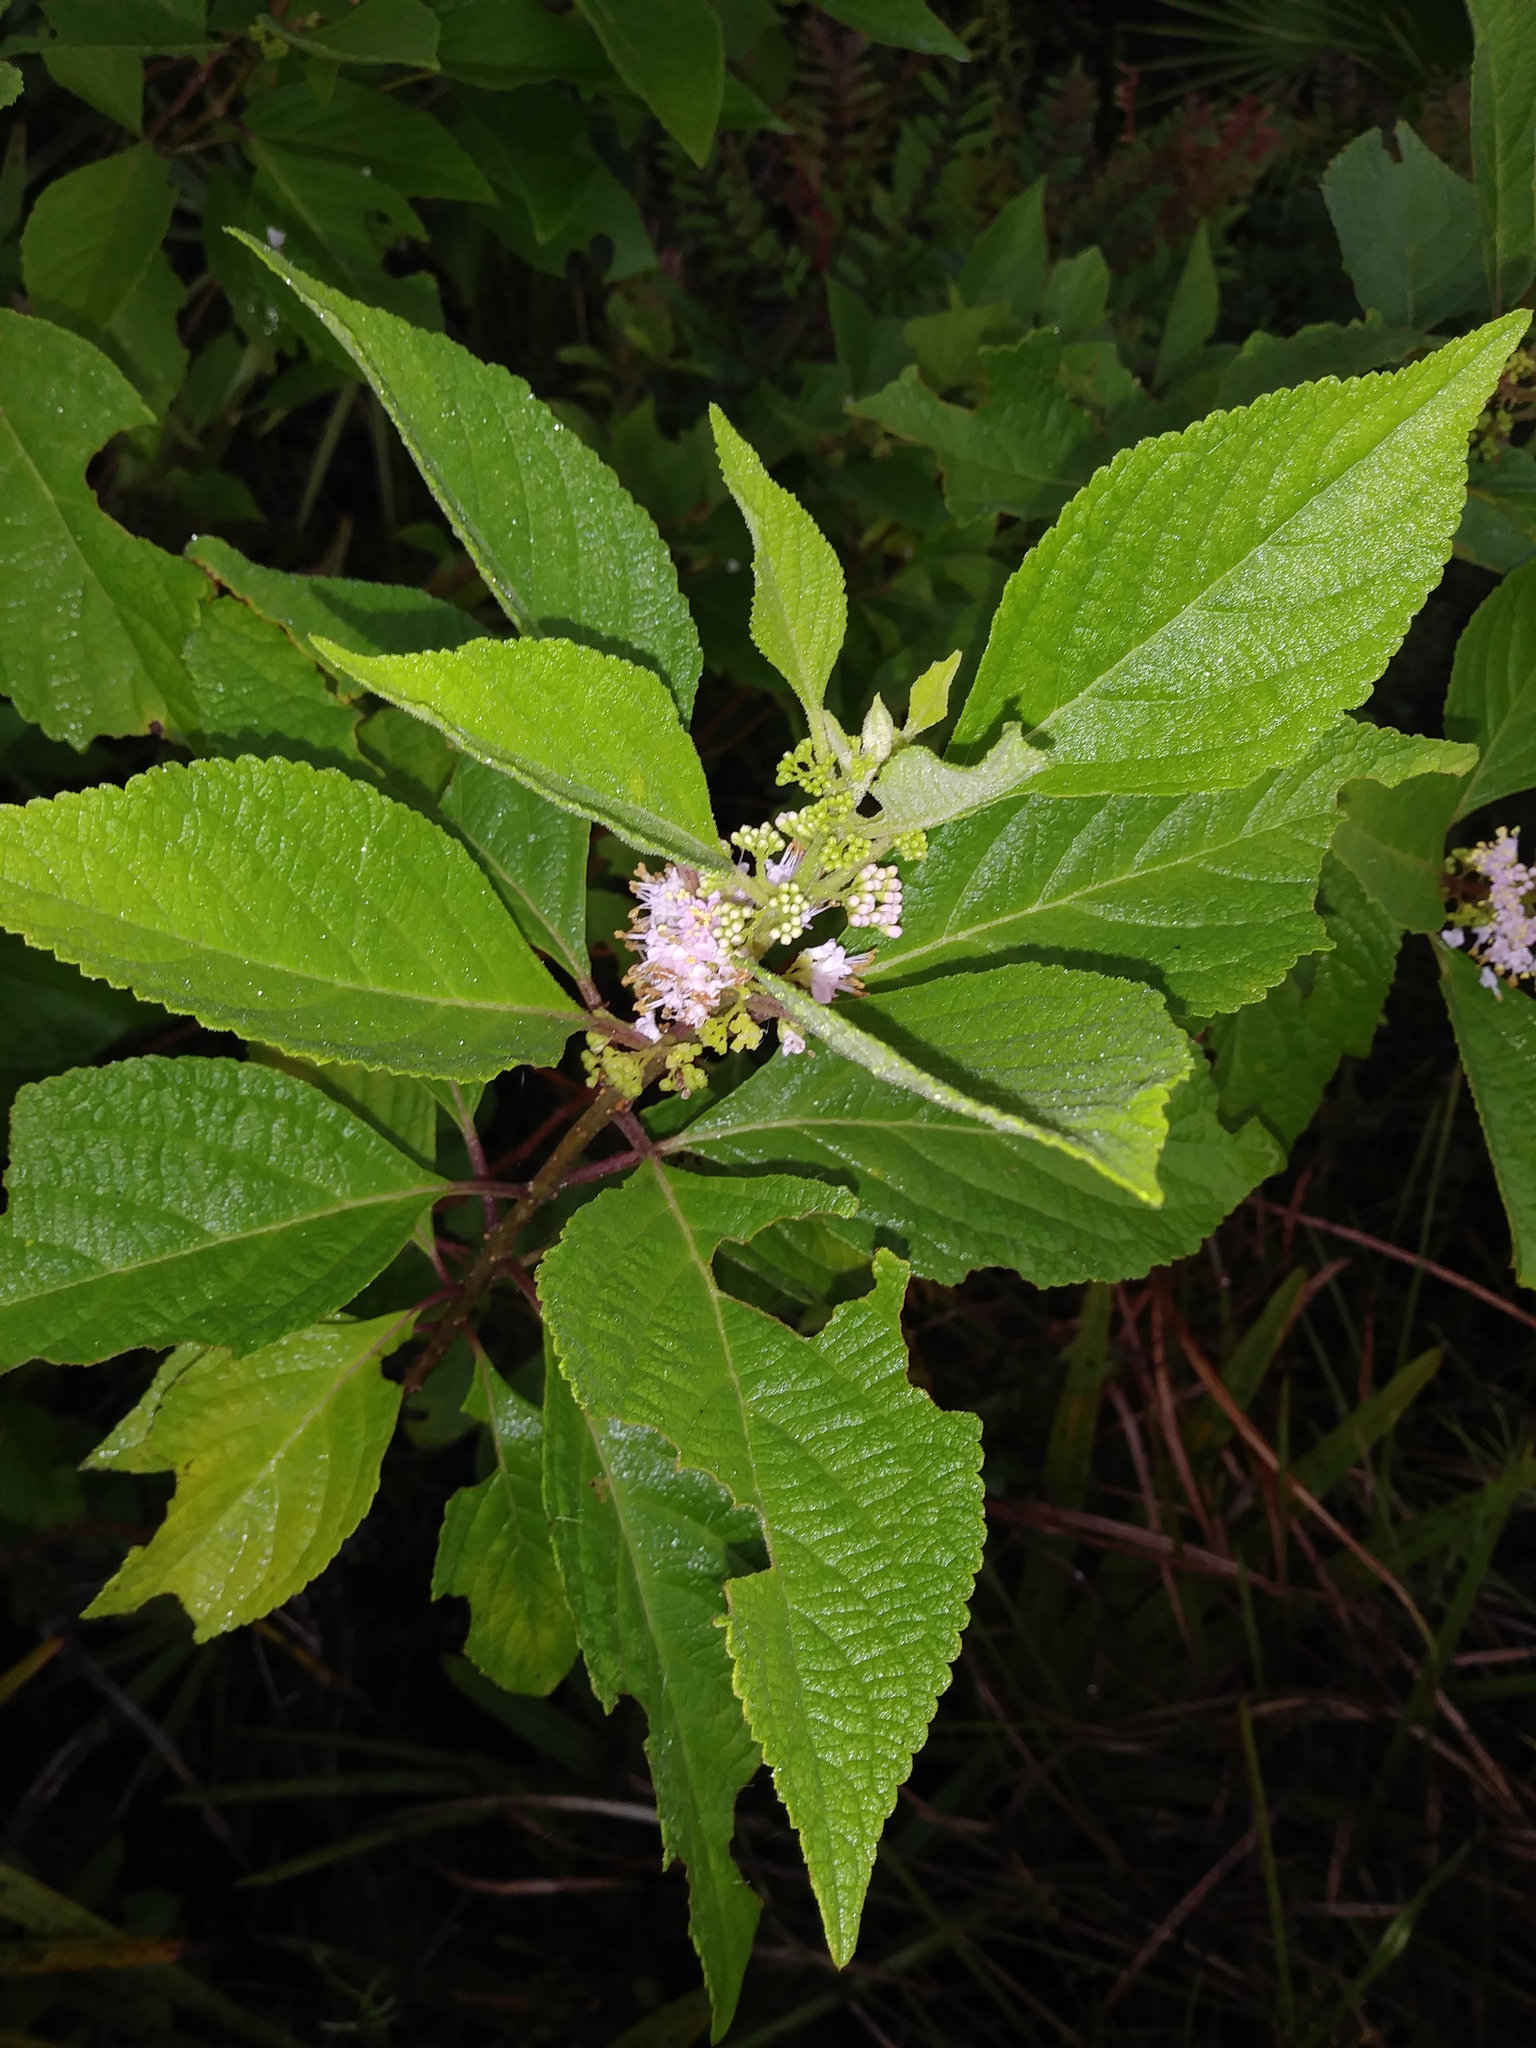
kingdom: Plantae
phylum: Tracheophyta
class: Magnoliopsida
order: Lamiales
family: Lamiaceae
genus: Callicarpa
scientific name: Callicarpa americana
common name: American beautyberry
